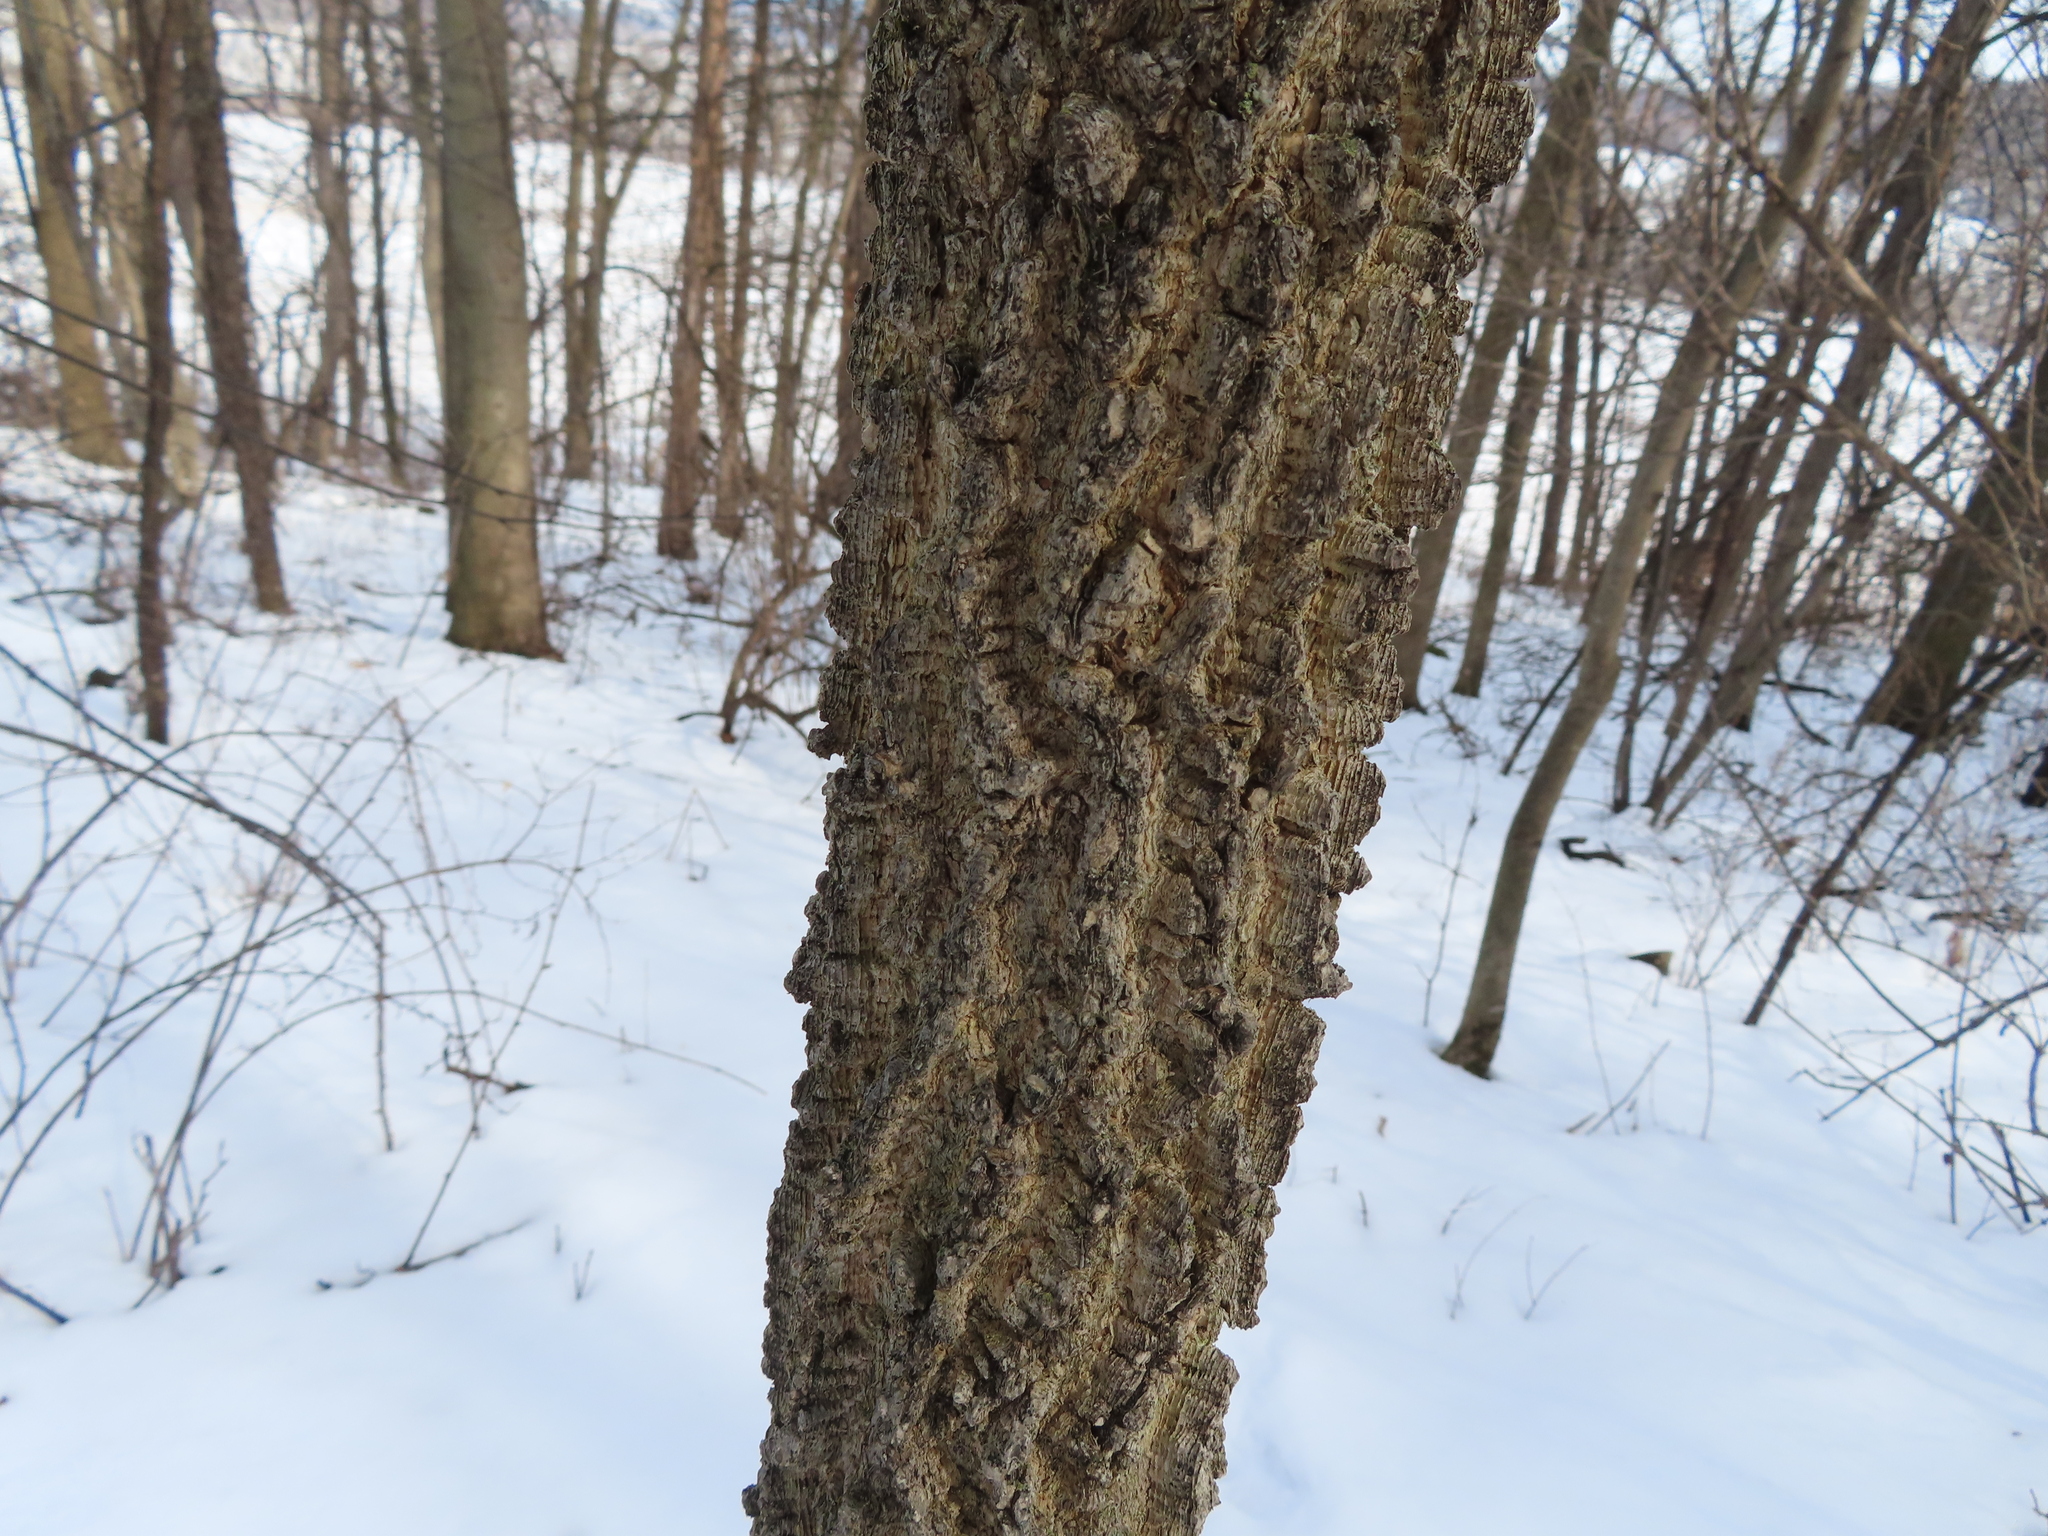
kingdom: Plantae
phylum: Tracheophyta
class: Magnoliopsida
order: Rosales
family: Cannabaceae
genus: Celtis
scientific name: Celtis occidentalis
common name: Common hackberry
